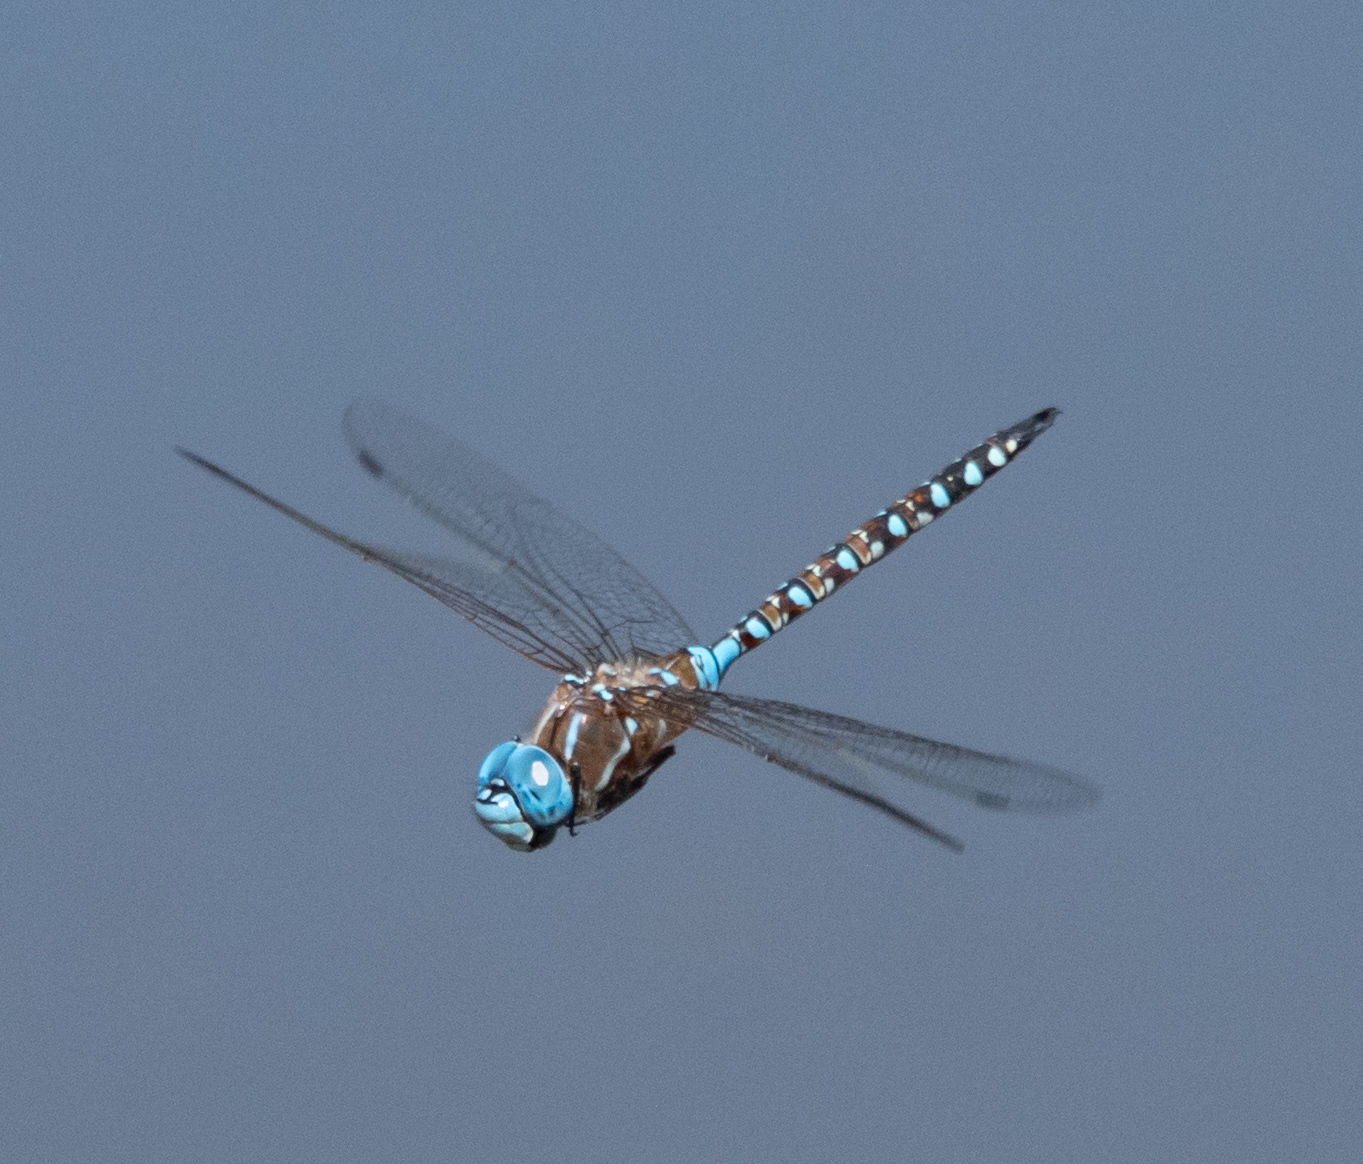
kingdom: Animalia
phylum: Arthropoda
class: Insecta
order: Odonata
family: Aeshnidae
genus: Rhionaeschna
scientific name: Rhionaeschna multicolor
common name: Blue-eyed darner
